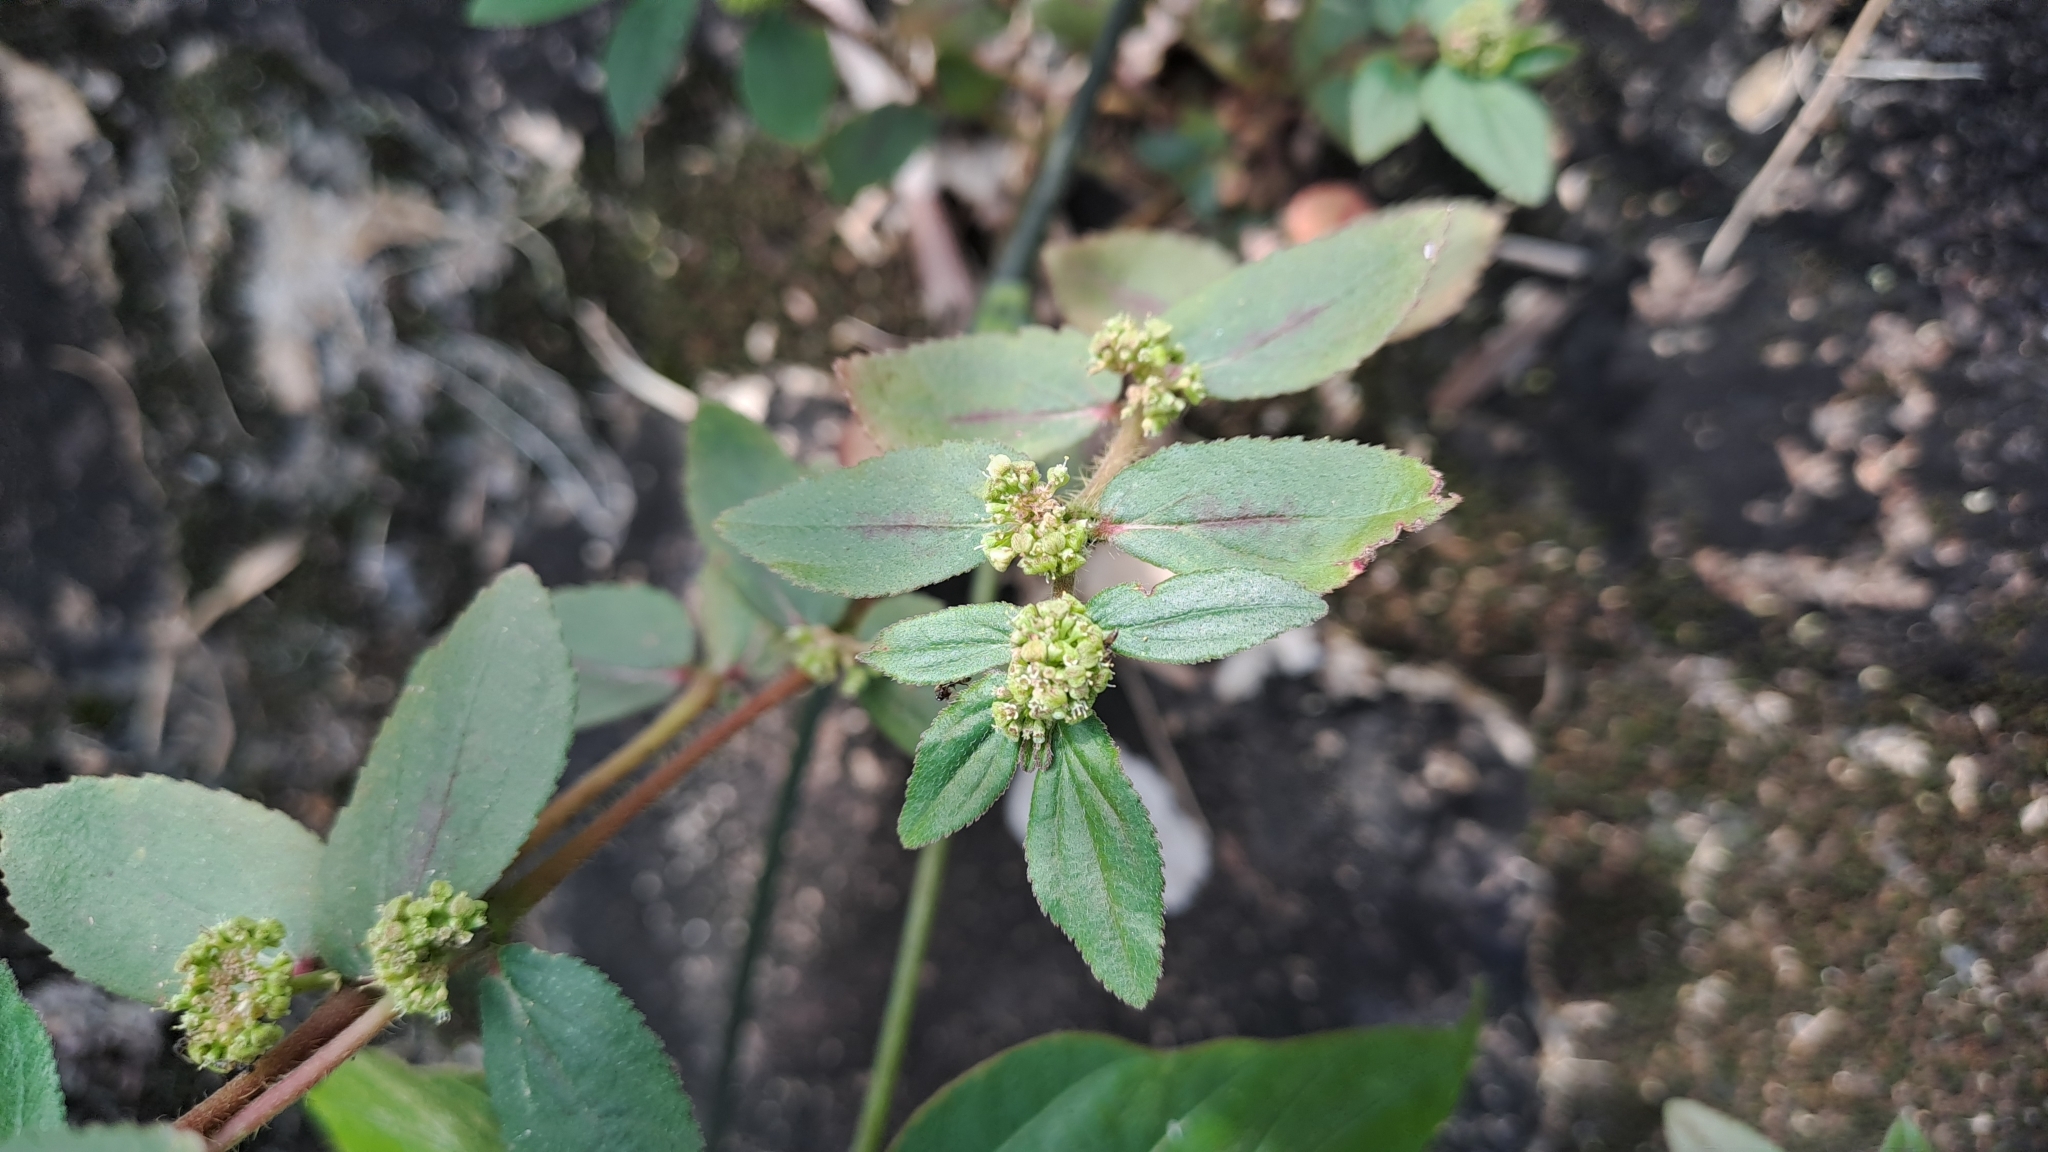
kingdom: Plantae
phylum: Tracheophyta
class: Magnoliopsida
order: Malpighiales
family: Euphorbiaceae
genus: Euphorbia
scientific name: Euphorbia hirta
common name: Pillpod sandmat
